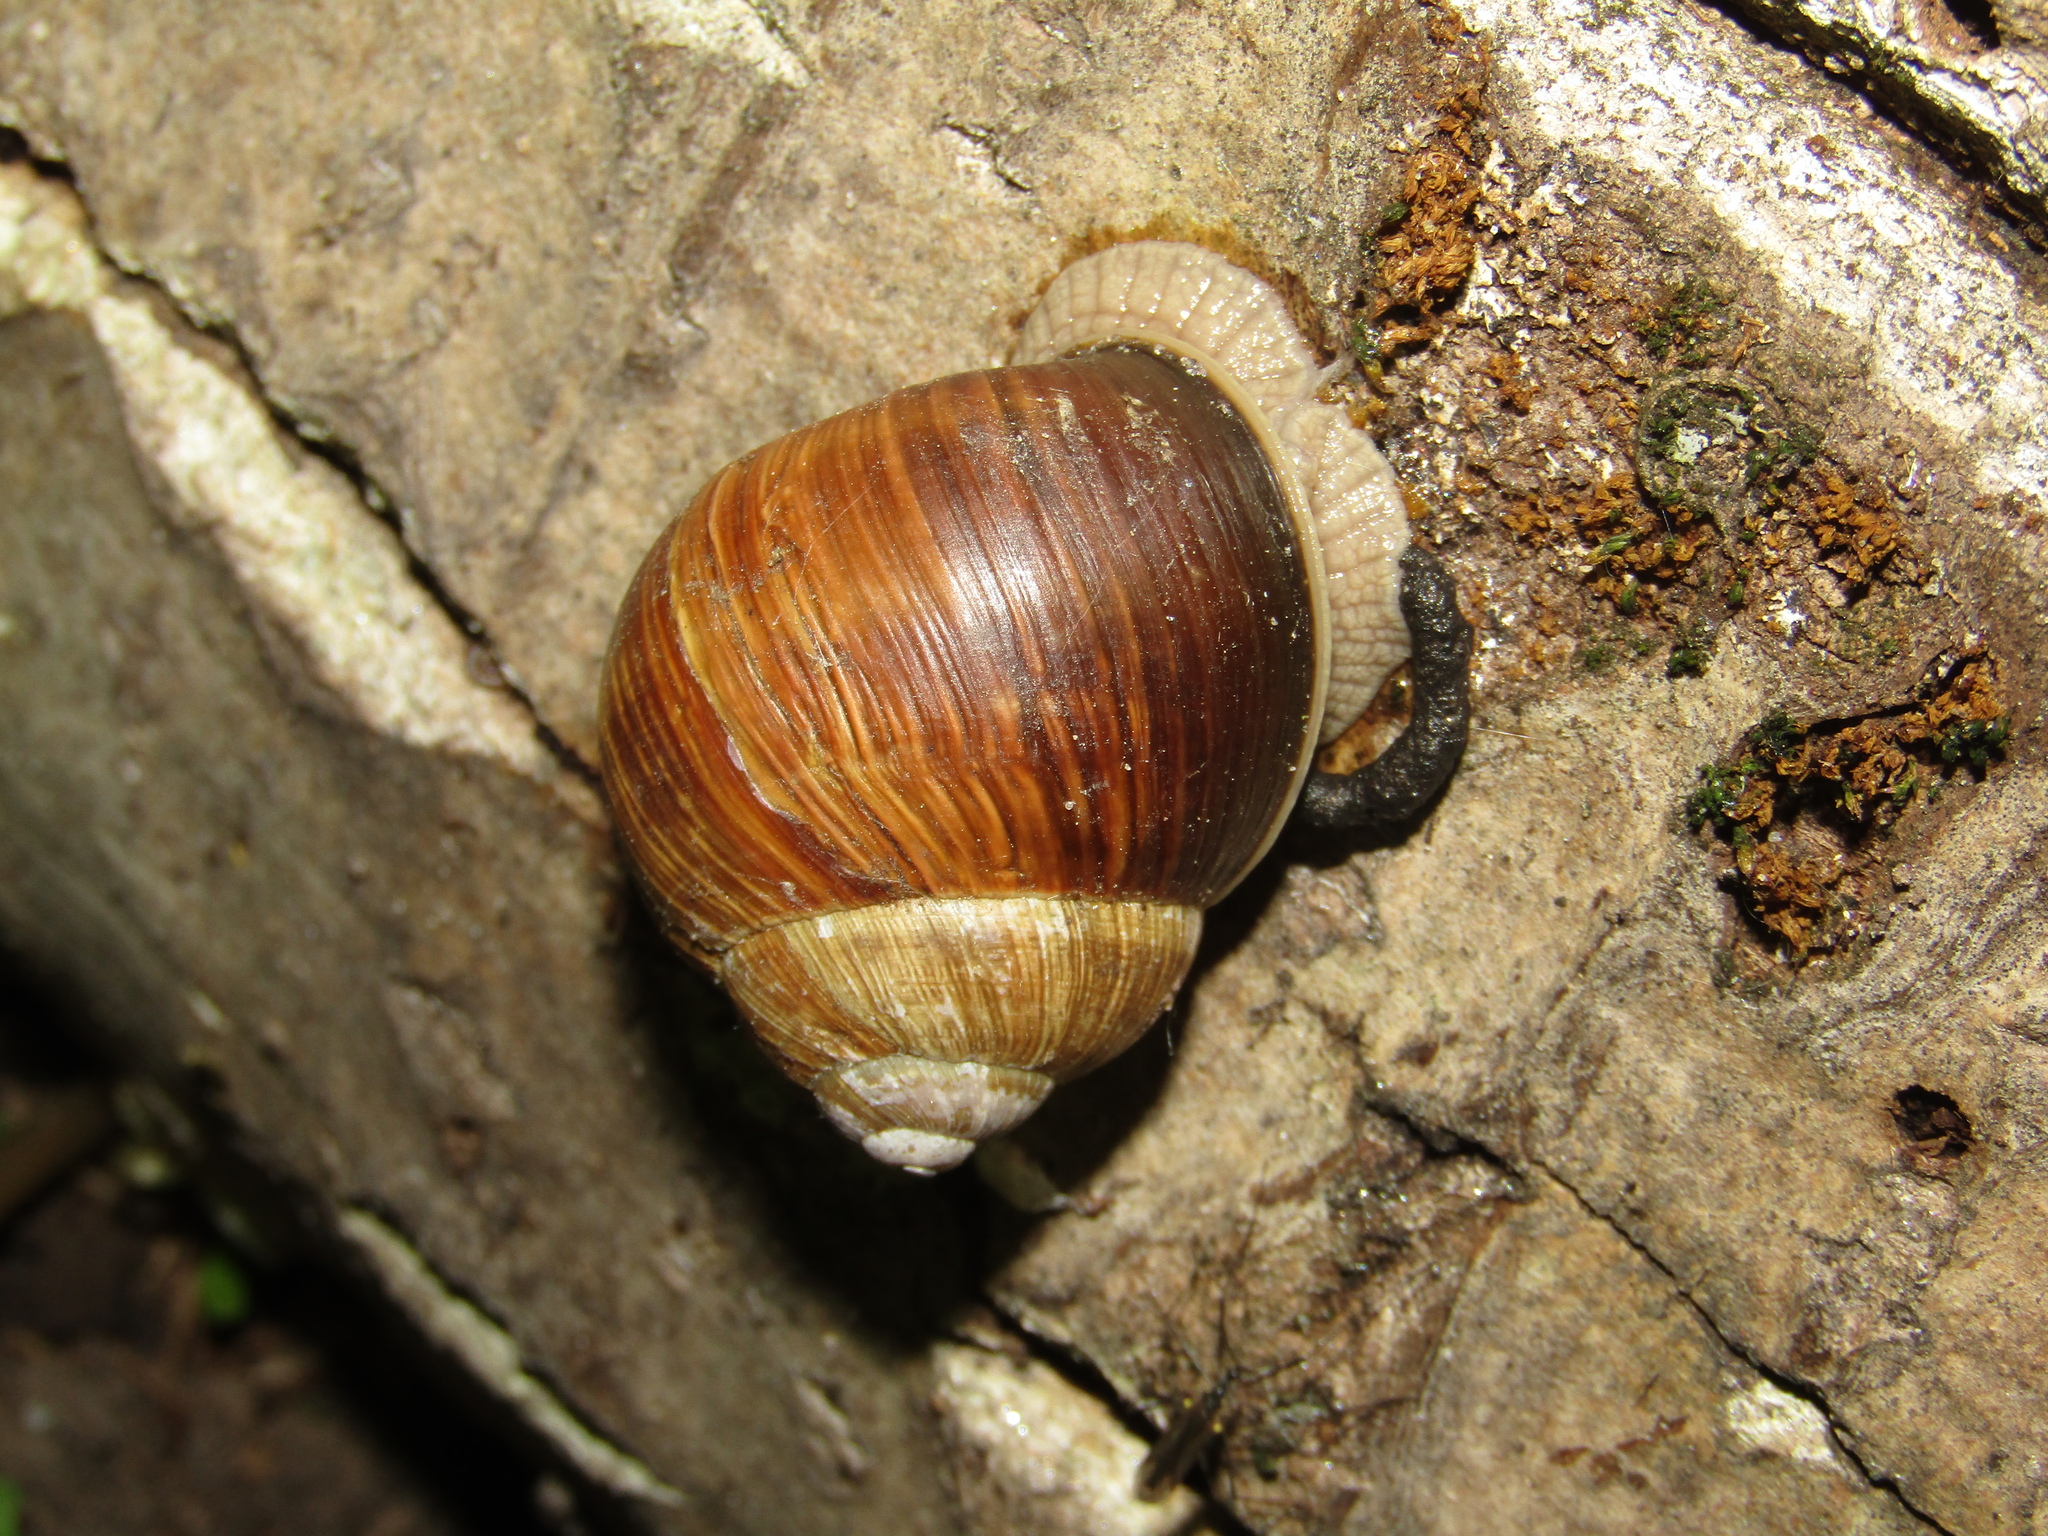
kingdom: Animalia
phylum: Mollusca
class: Gastropoda
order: Stylommatophora
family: Helicidae
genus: Helix
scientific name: Helix pomatia
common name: Roman snail
